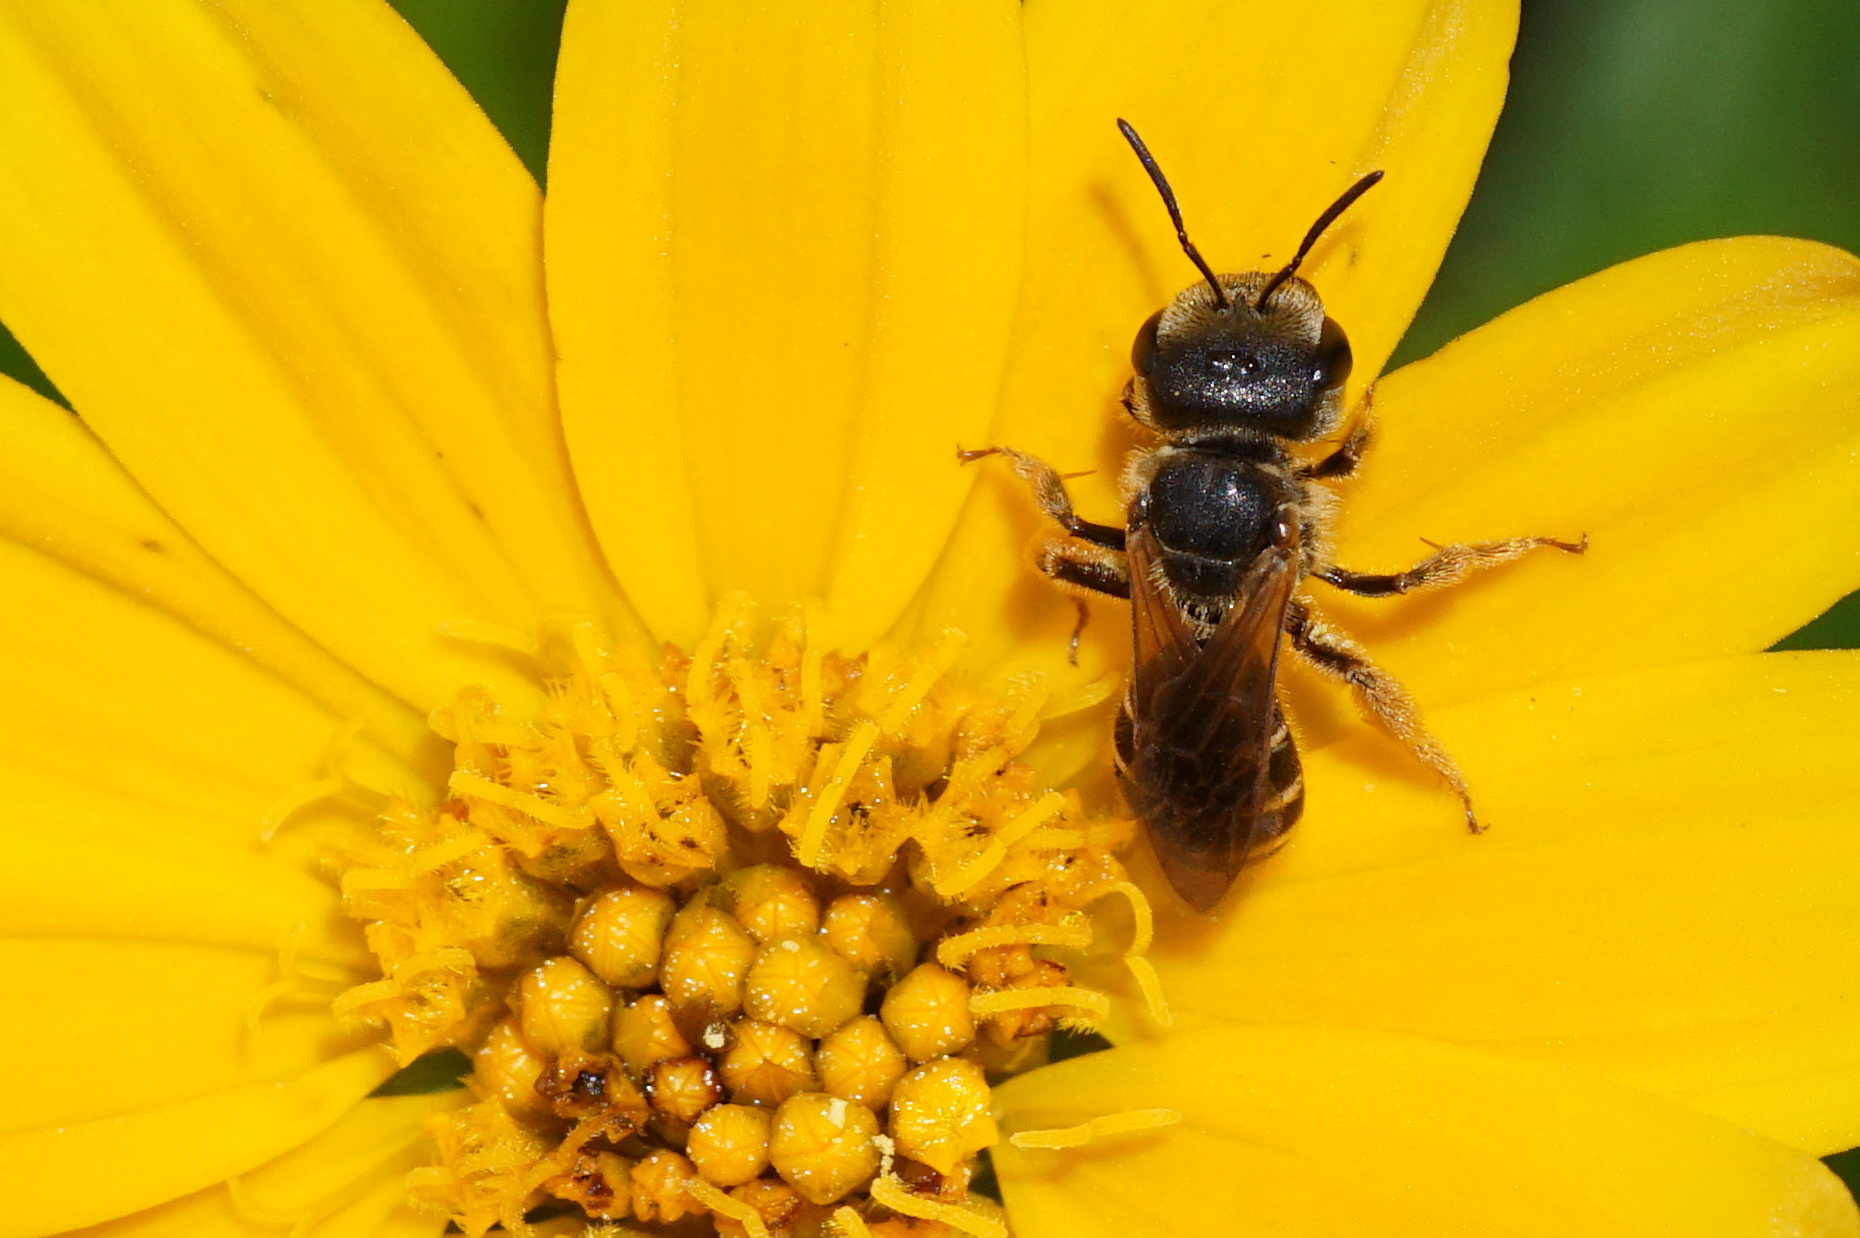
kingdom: Animalia
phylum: Arthropoda
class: Insecta
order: Hymenoptera
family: Halictidae
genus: Halictus
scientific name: Halictus poeyi
